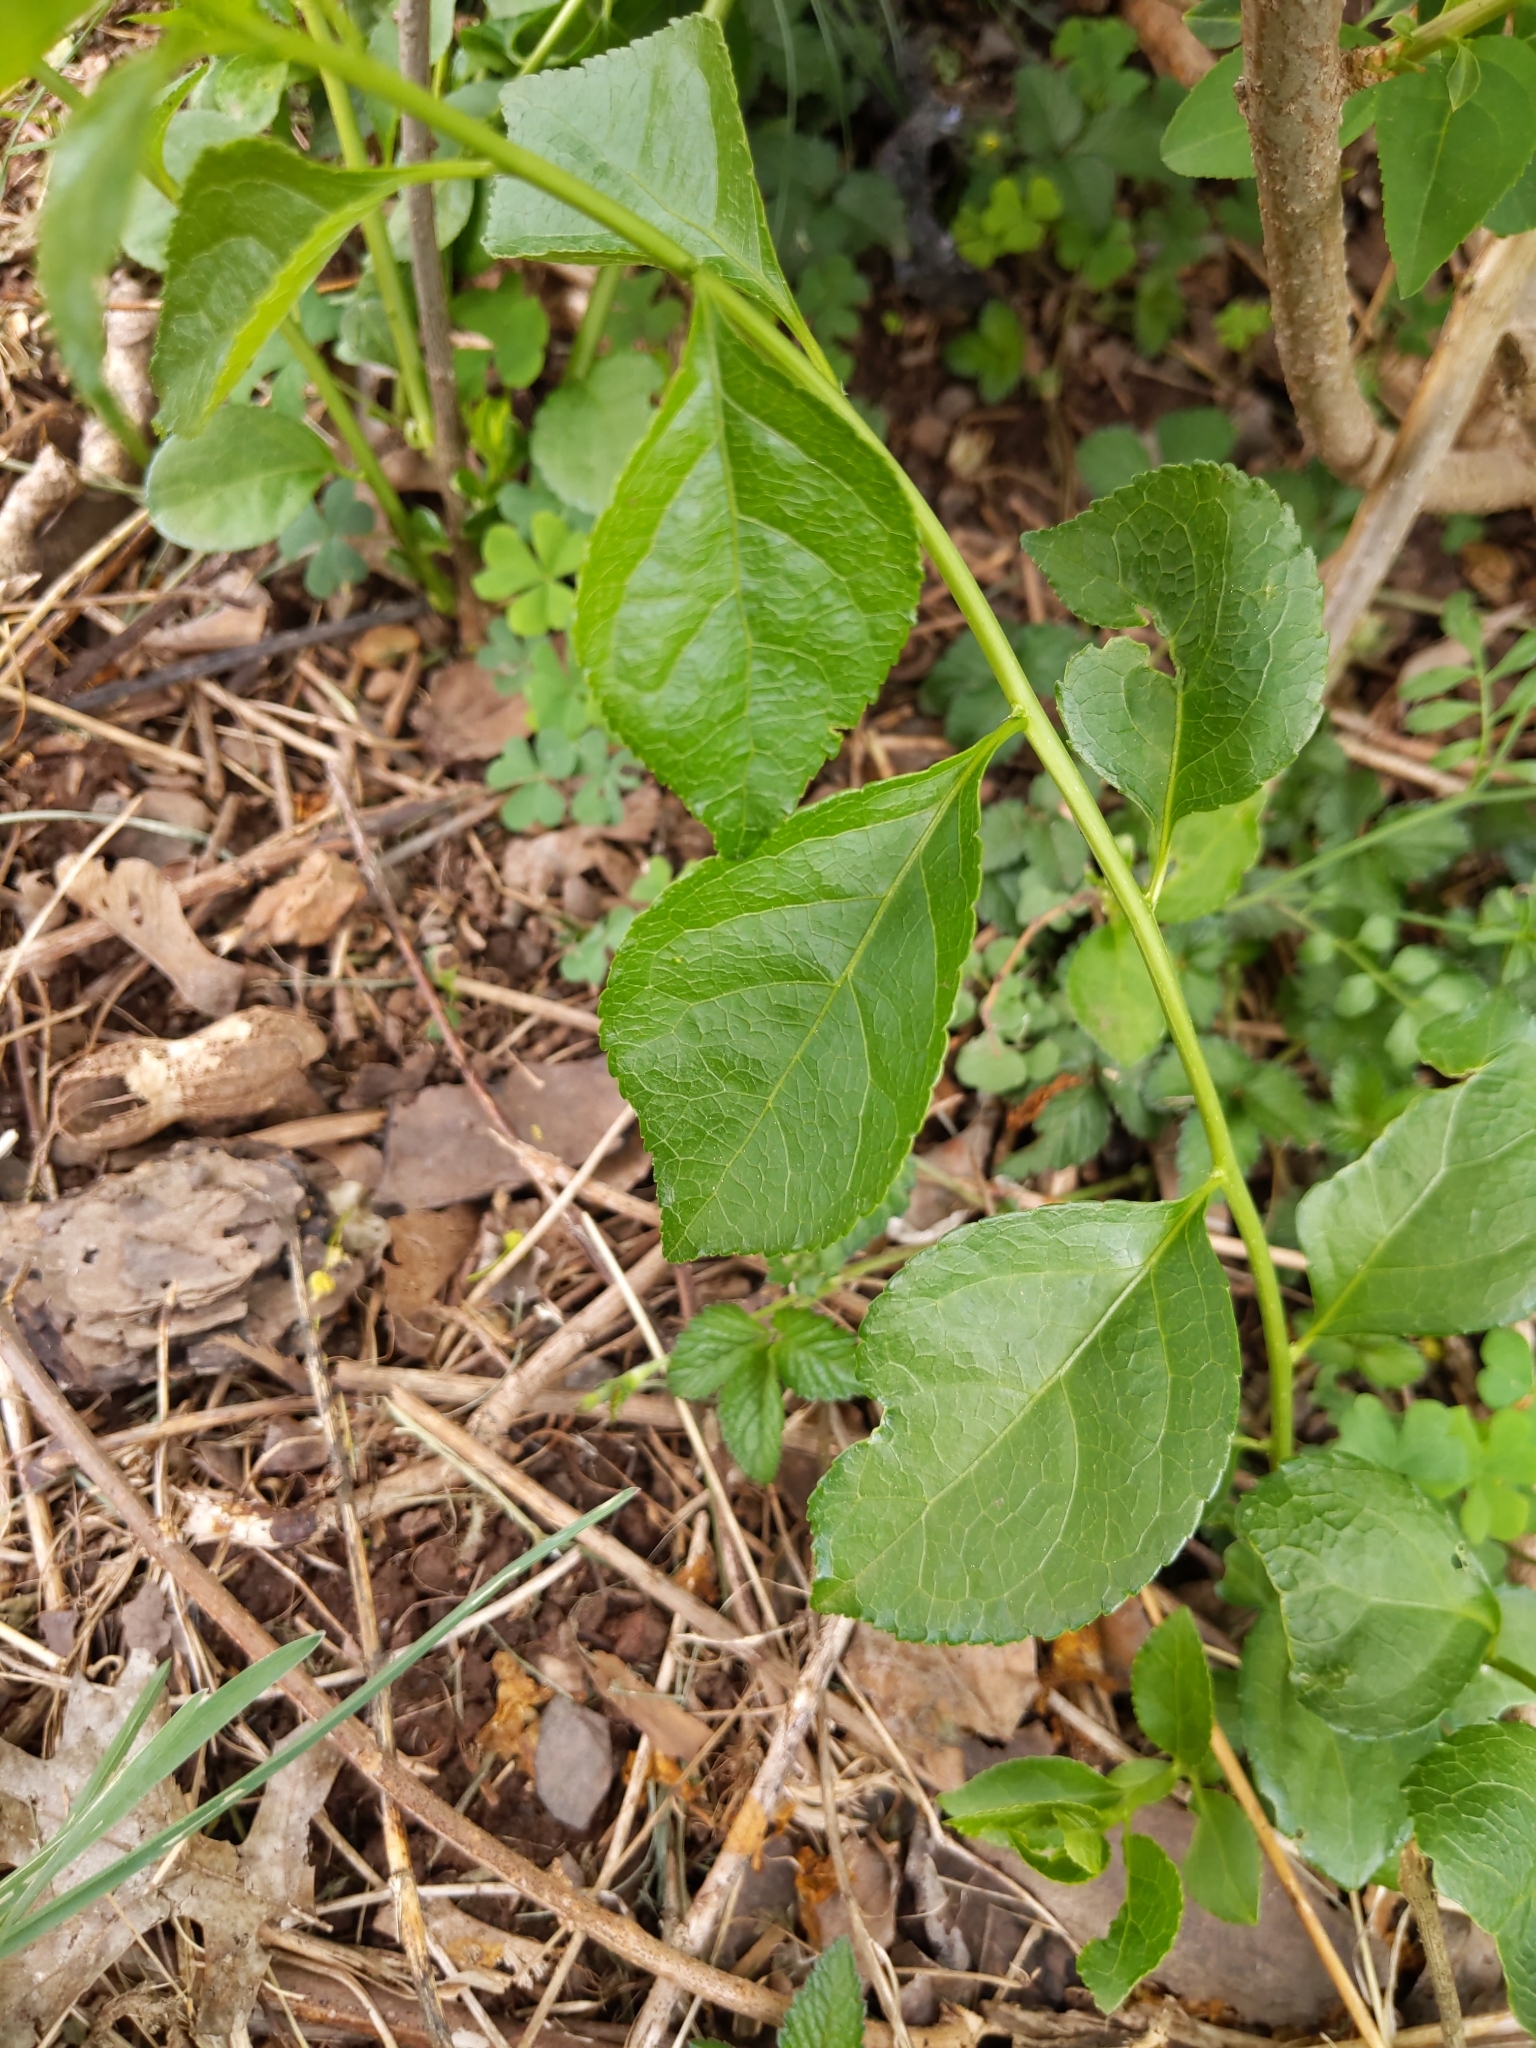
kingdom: Plantae
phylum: Tracheophyta
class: Magnoliopsida
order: Celastrales
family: Celastraceae
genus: Celastrus
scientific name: Celastrus orbiculatus
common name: Oriental bittersweet
